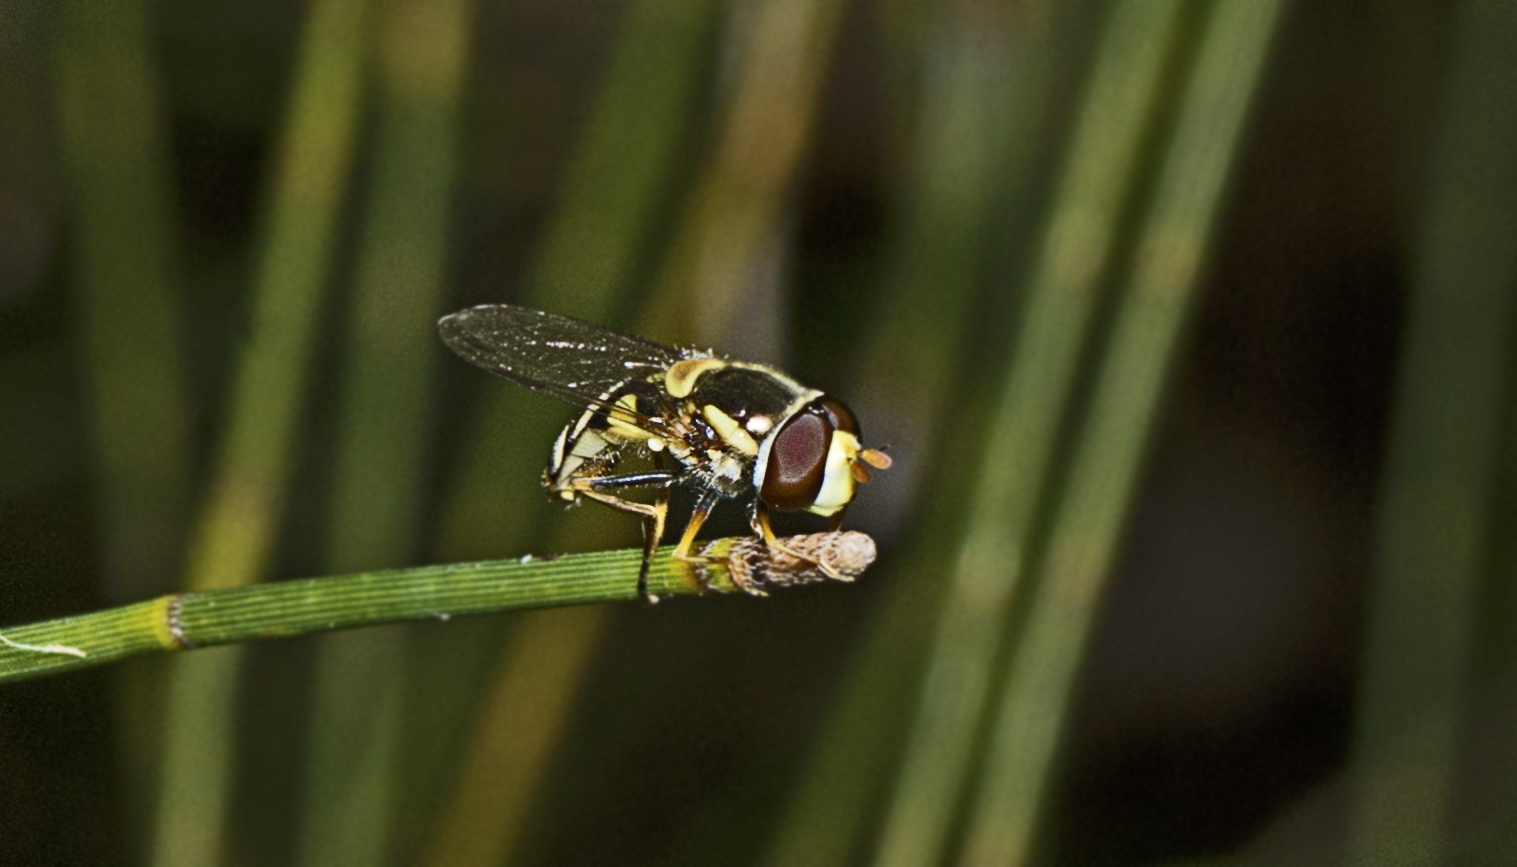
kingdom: Animalia
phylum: Arthropoda
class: Insecta
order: Diptera
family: Syrphidae
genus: Simosyrphus
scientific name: Simosyrphus grandicornis
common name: Hoverfly
